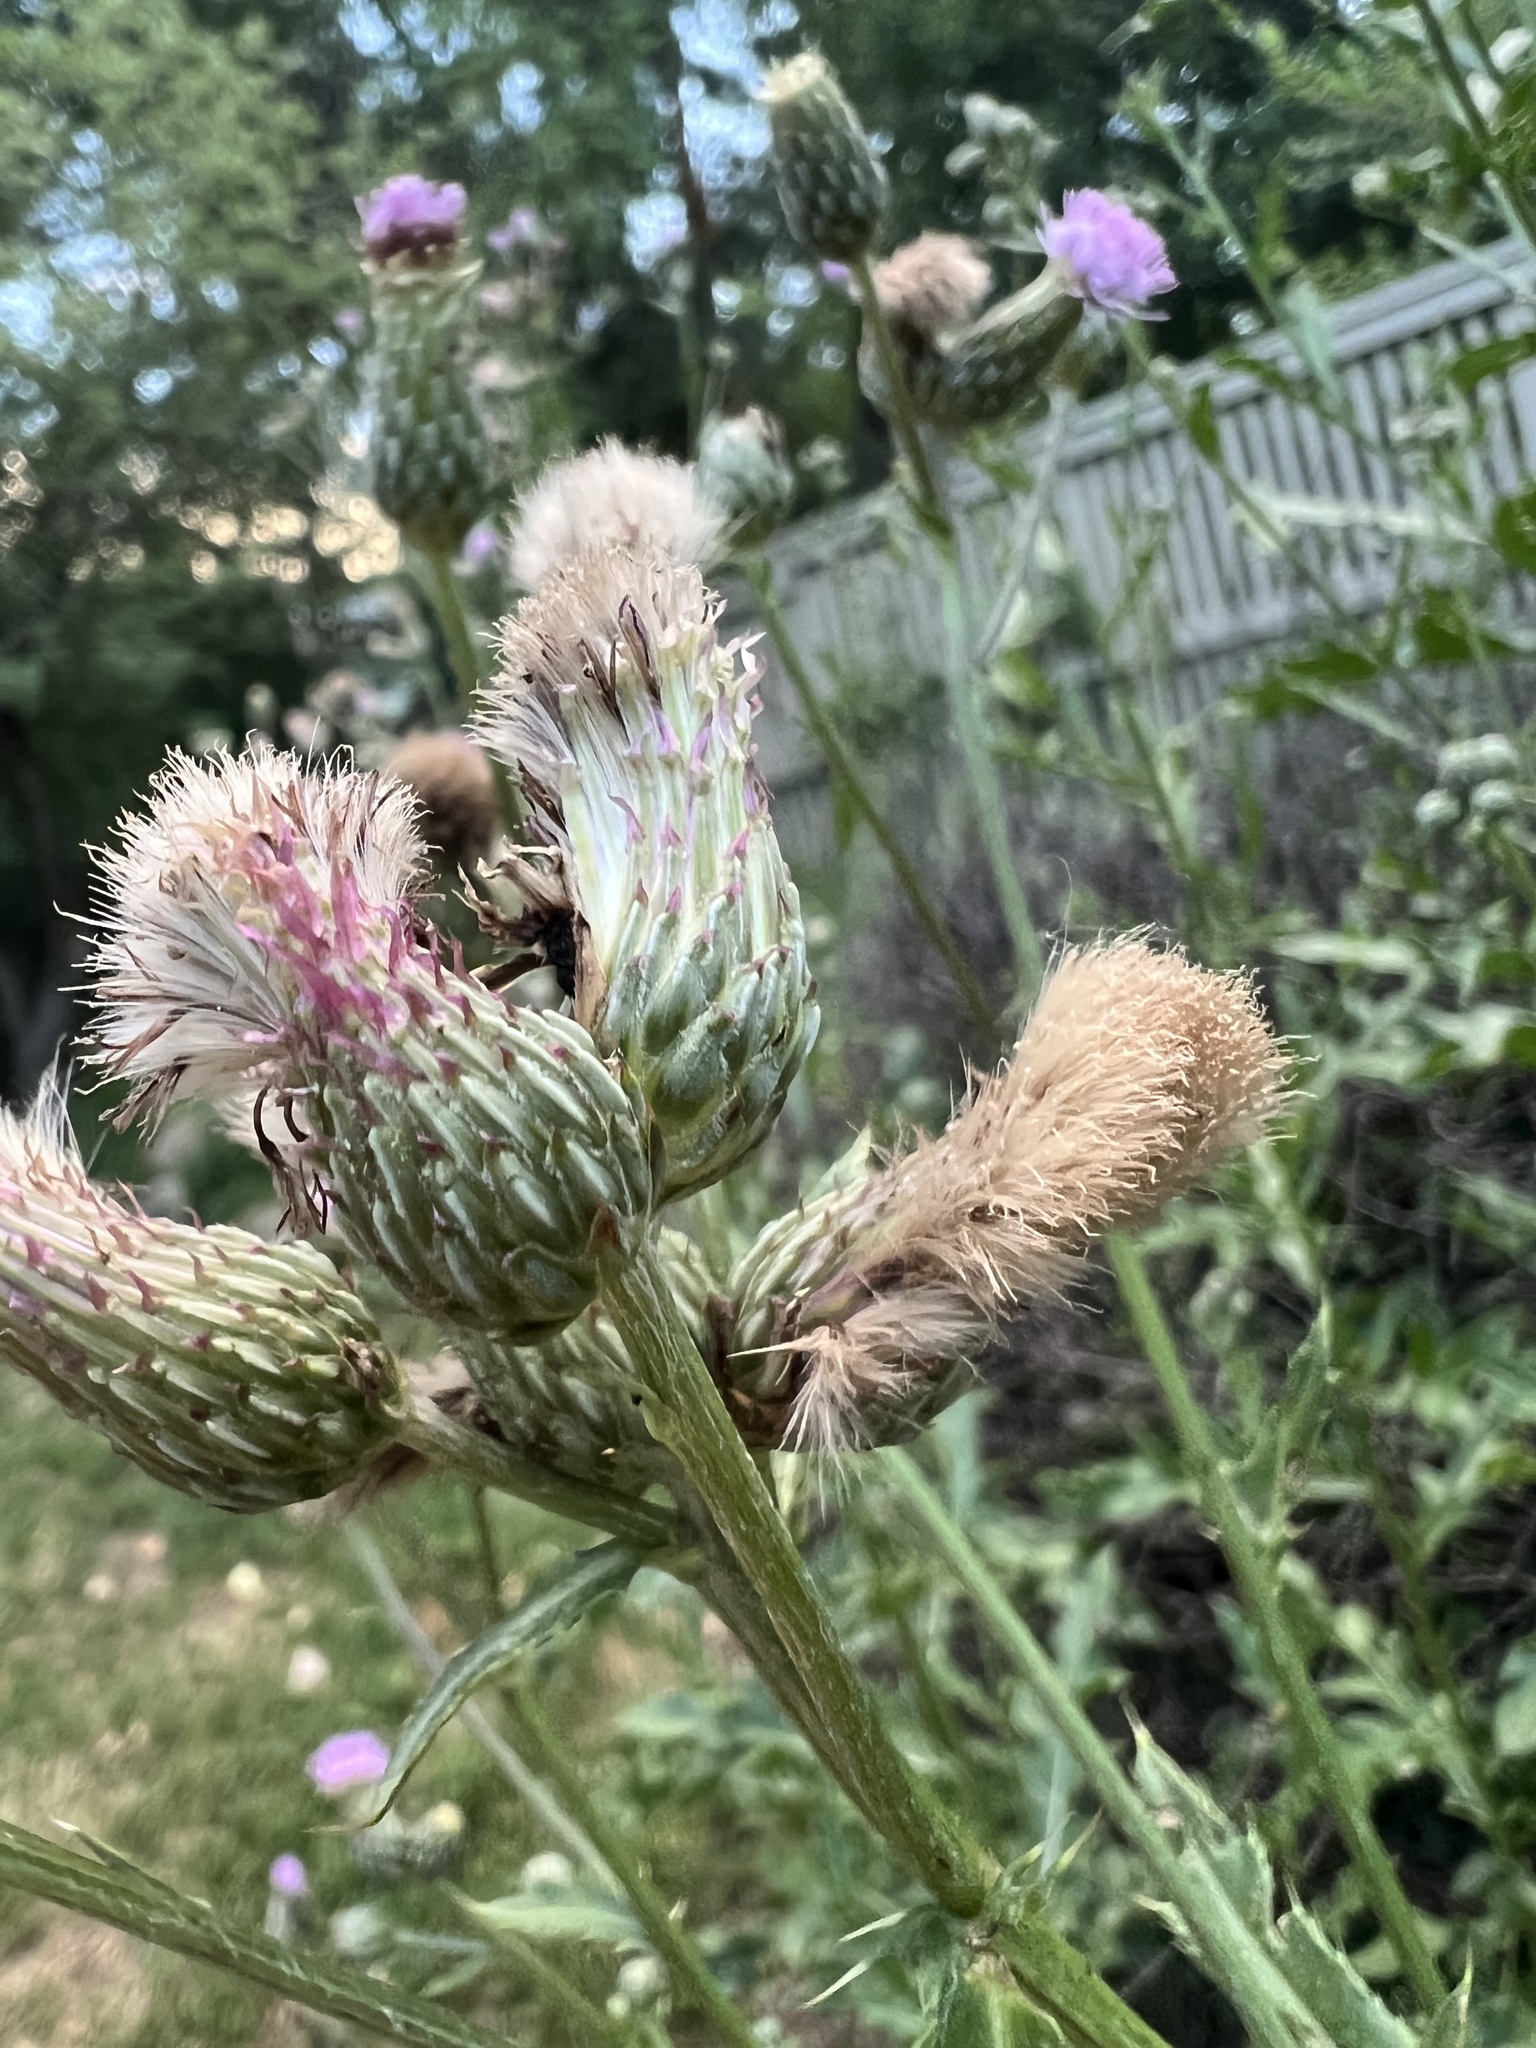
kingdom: Plantae
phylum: Tracheophyta
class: Magnoliopsida
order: Asterales
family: Asteraceae
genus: Cirsium
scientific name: Cirsium arvense
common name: Creeping thistle
